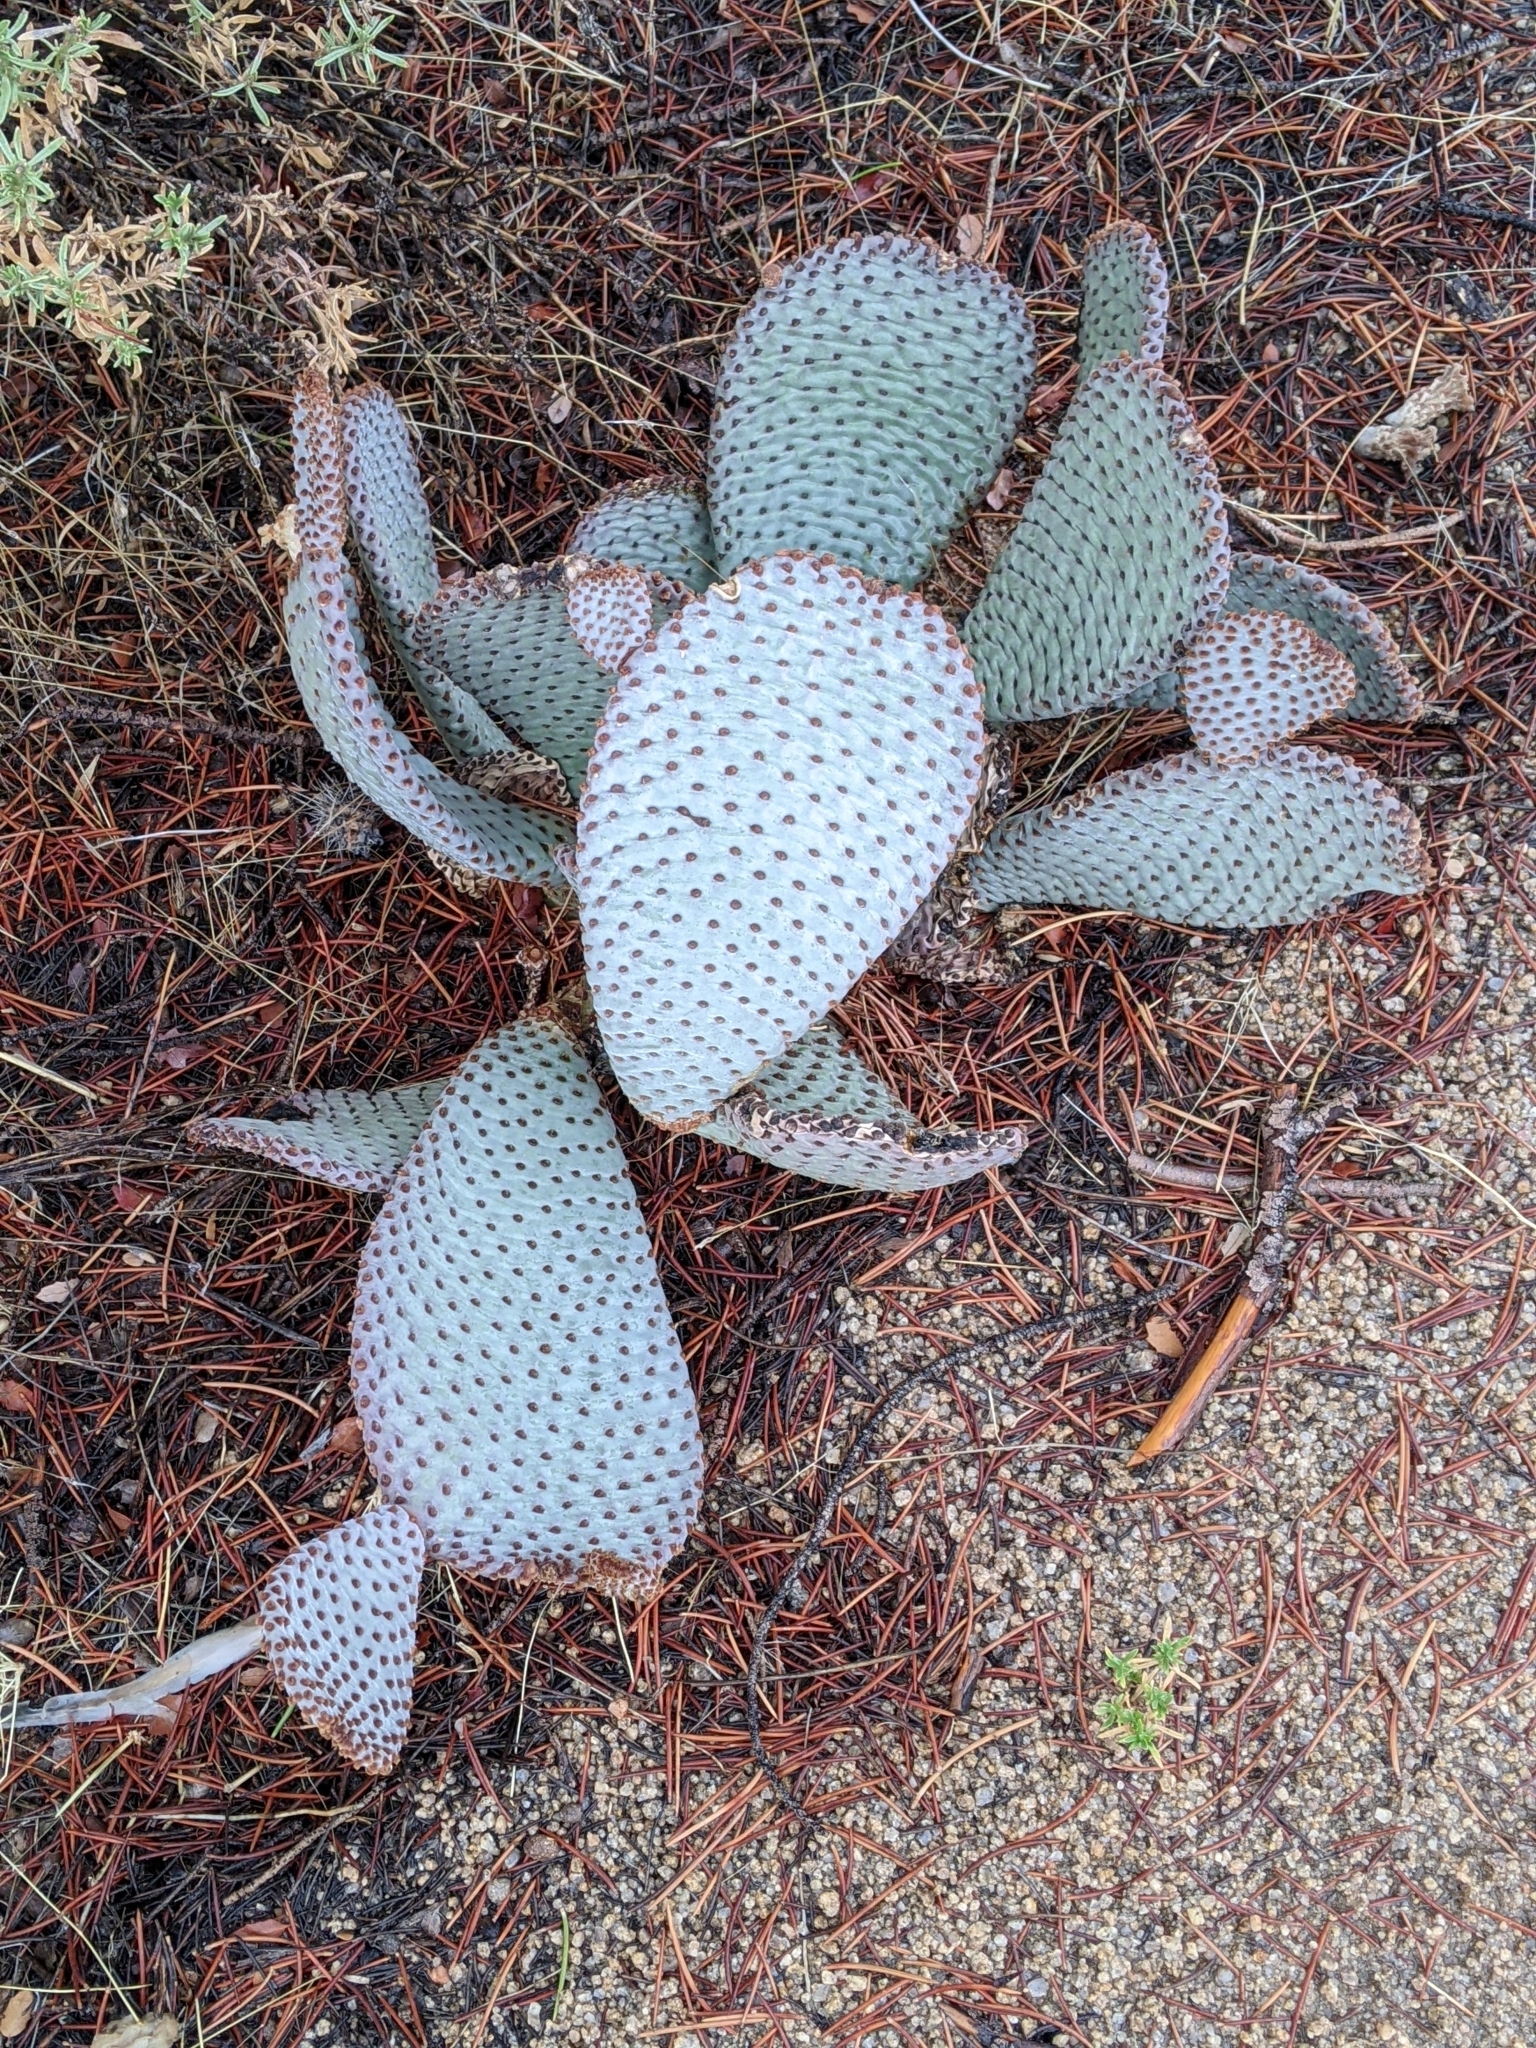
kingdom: Plantae
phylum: Tracheophyta
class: Magnoliopsida
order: Caryophyllales
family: Cactaceae
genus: Opuntia
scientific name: Opuntia basilaris
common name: Beavertail prickly-pear
